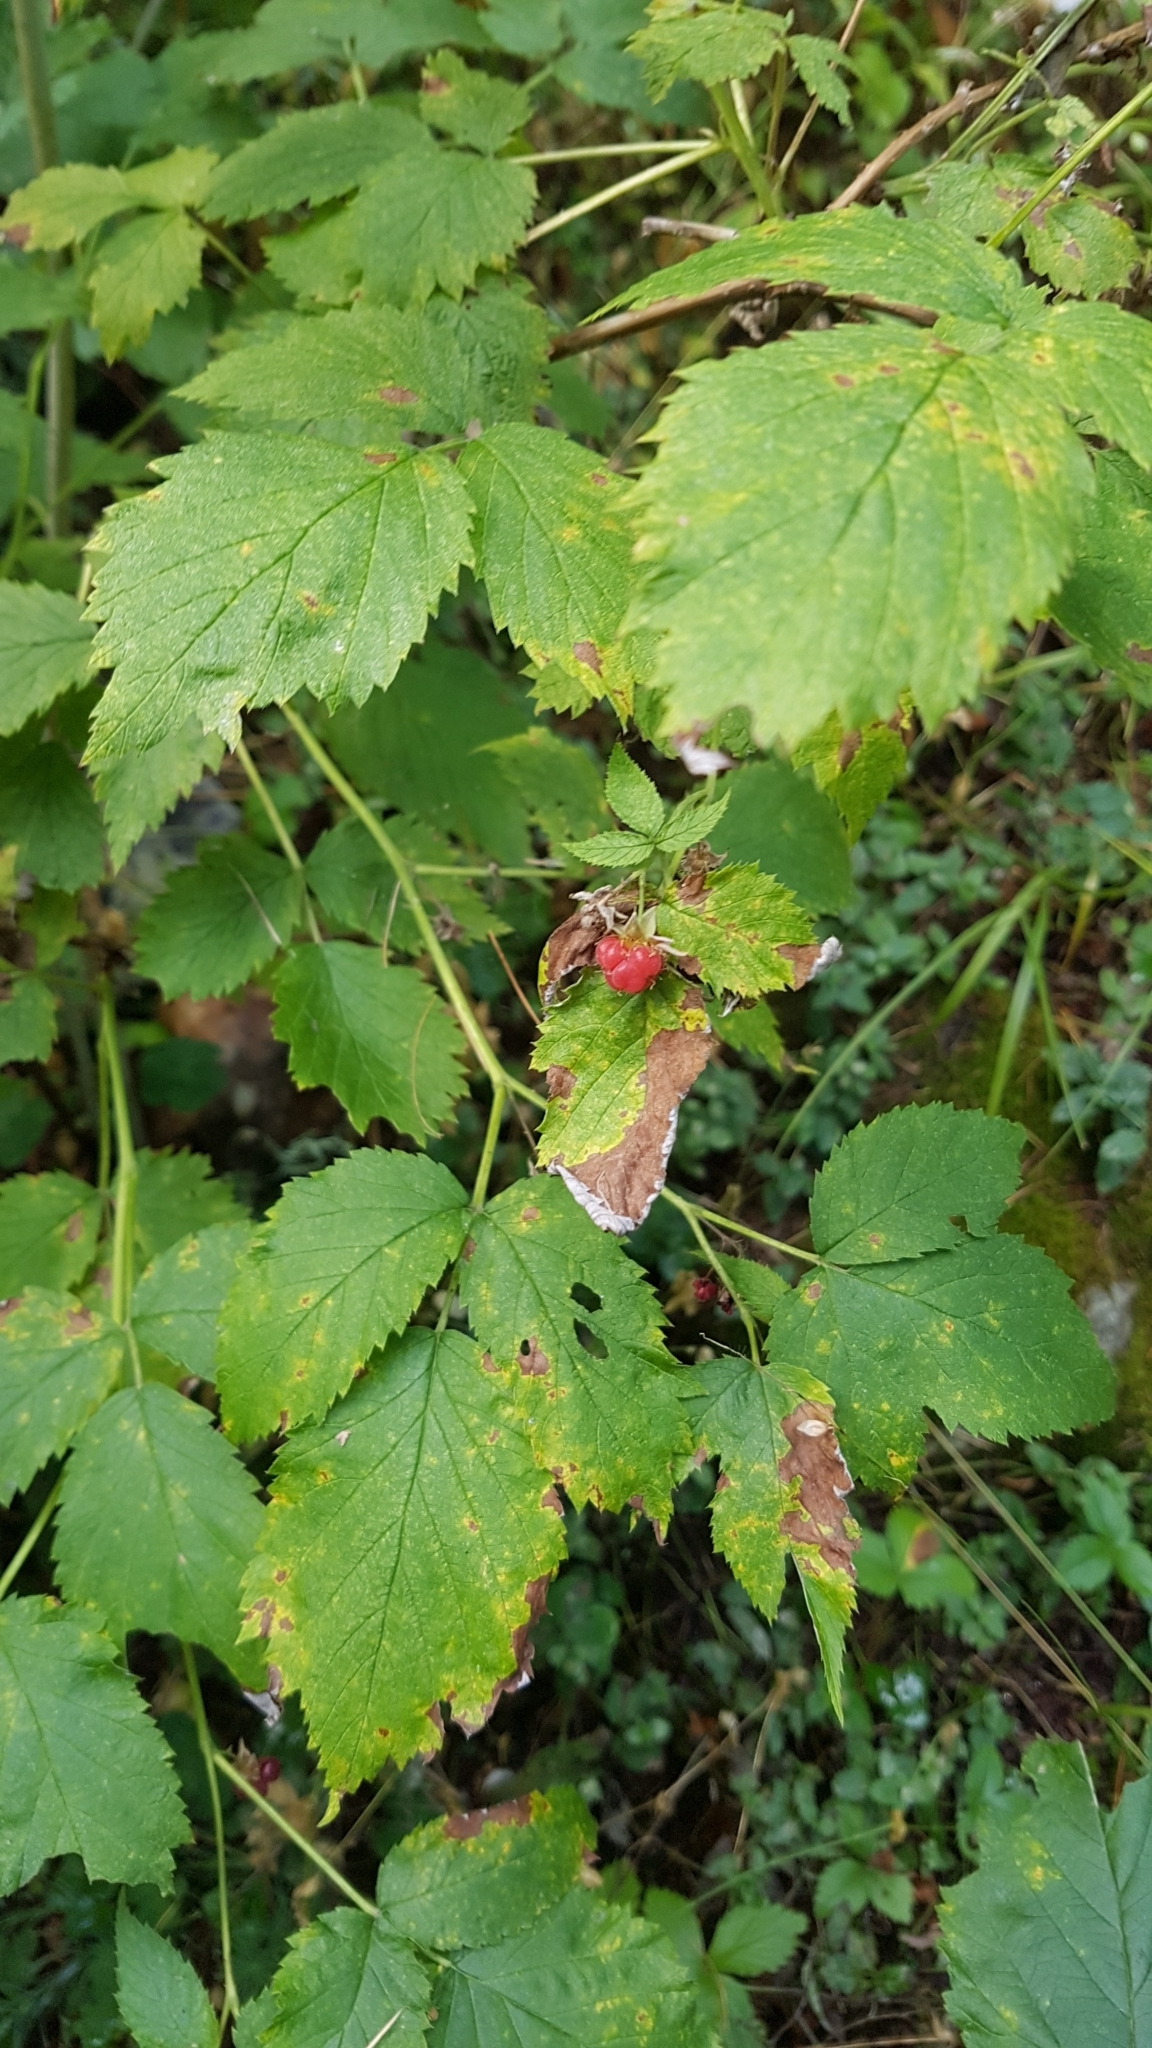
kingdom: Plantae
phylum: Tracheophyta
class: Magnoliopsida
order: Rosales
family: Rosaceae
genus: Rubus
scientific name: Rubus idaeus
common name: Raspberry
